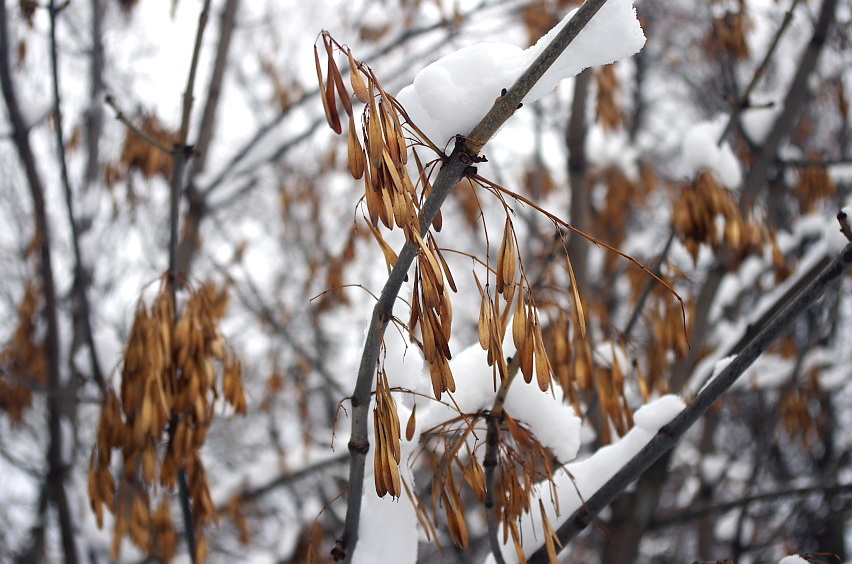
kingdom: Plantae
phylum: Tracheophyta
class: Magnoliopsida
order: Lamiales
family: Oleaceae
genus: Fraxinus
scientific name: Fraxinus pennsylvanica
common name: Green ash
